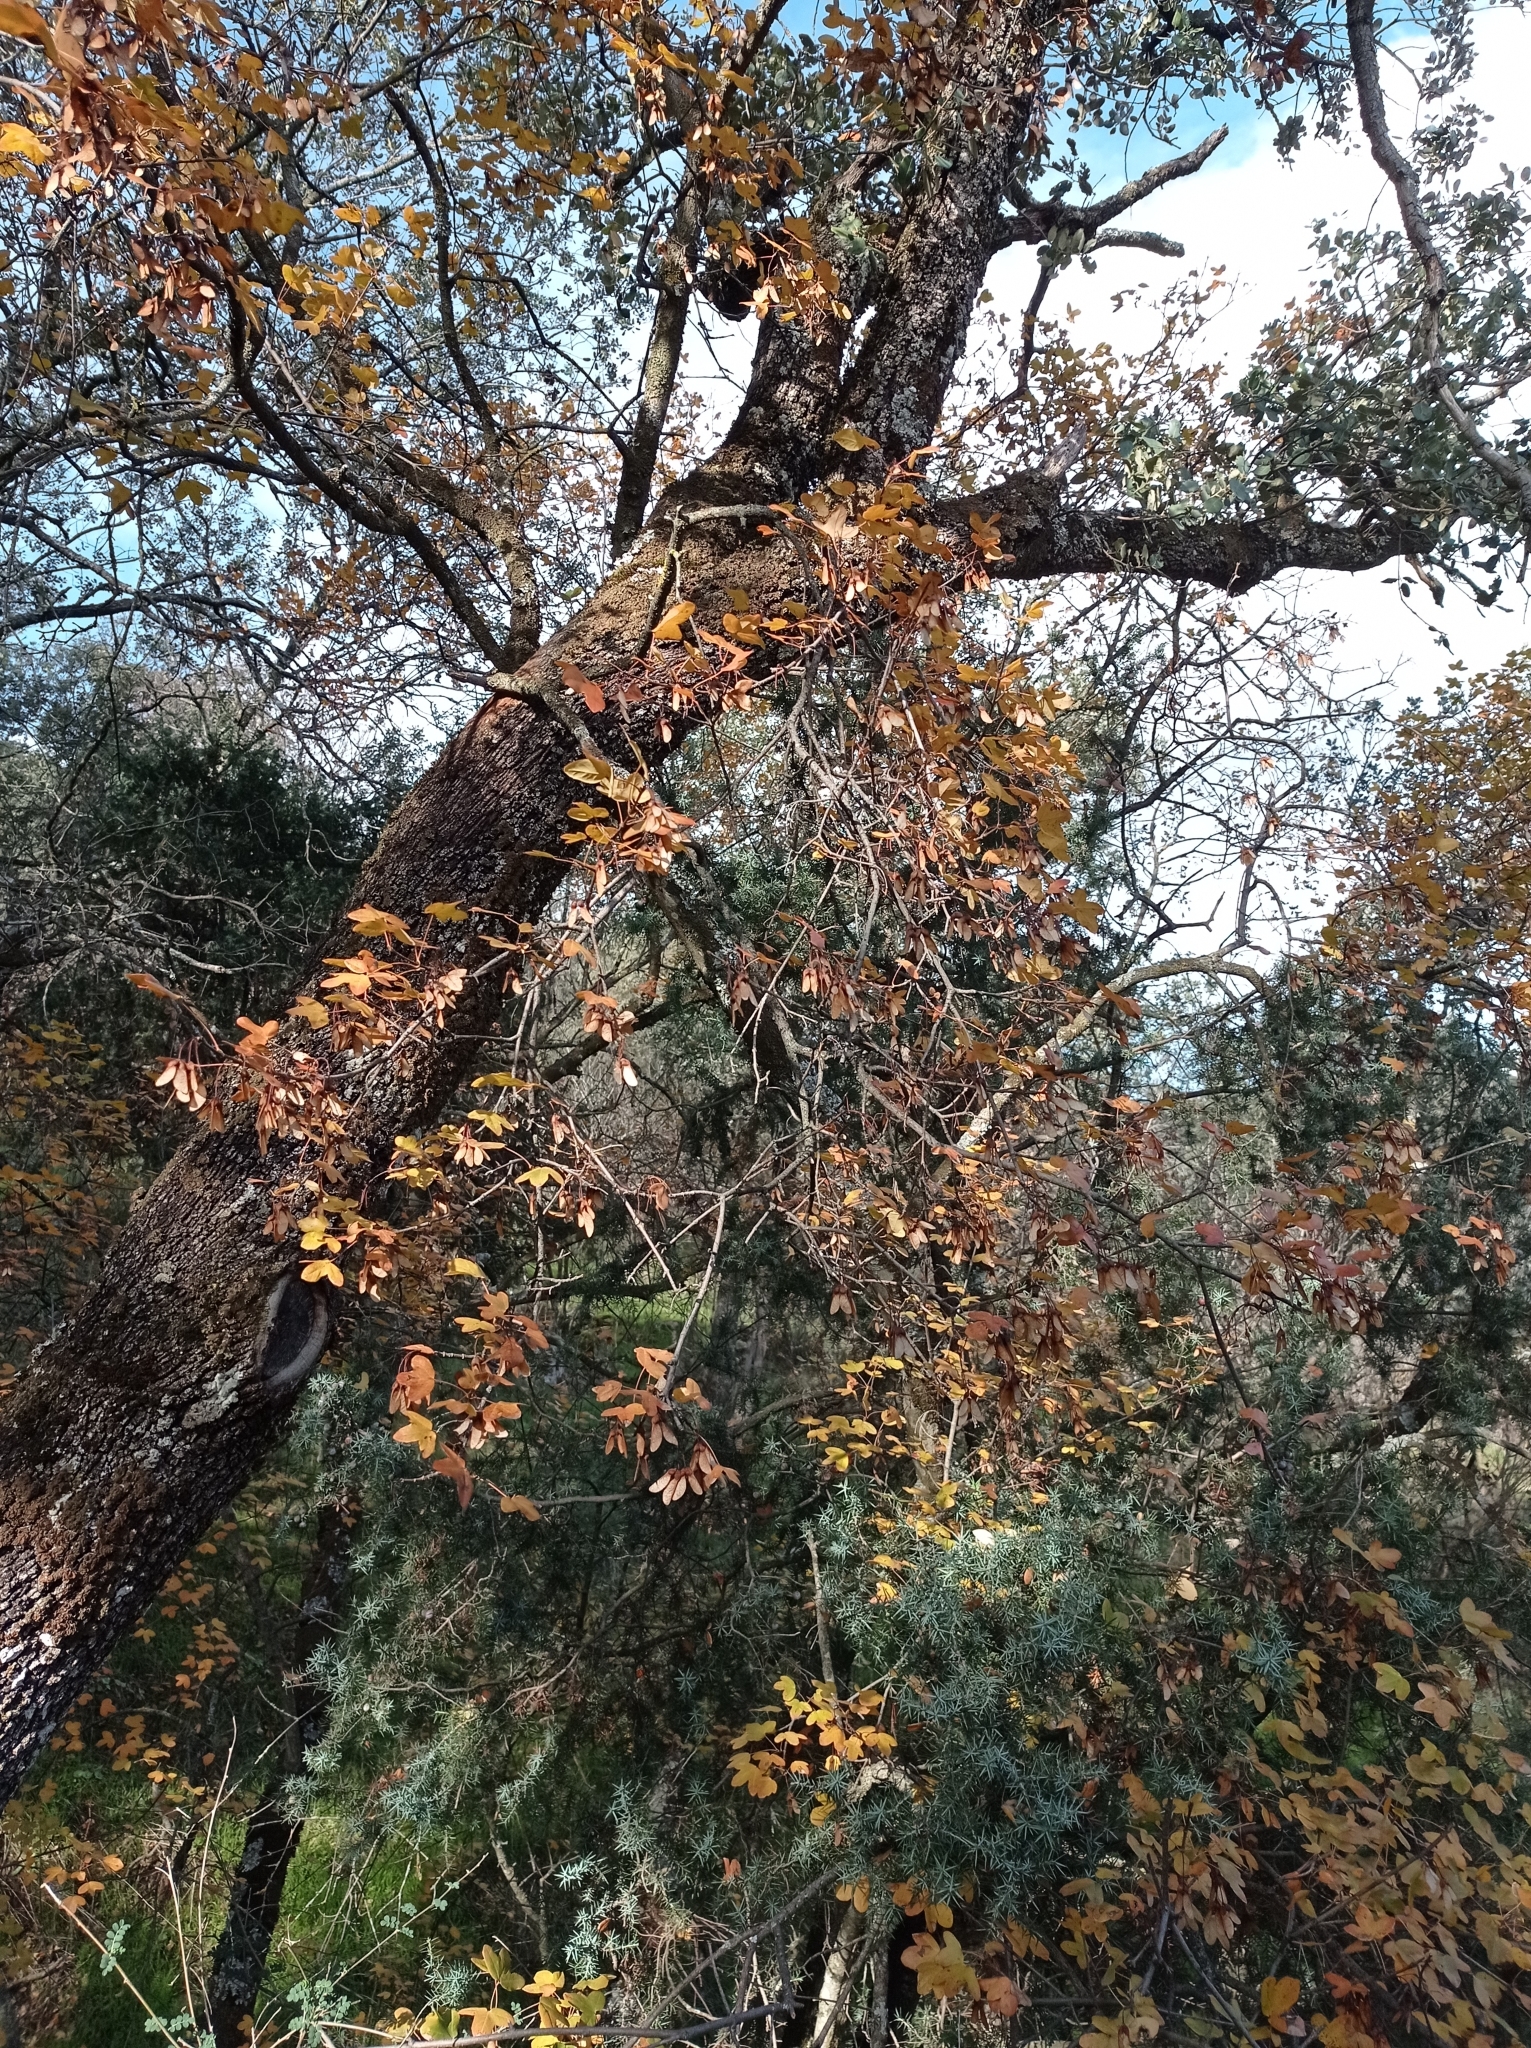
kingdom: Plantae
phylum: Tracheophyta
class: Magnoliopsida
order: Sapindales
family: Sapindaceae
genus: Acer
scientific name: Acer monspessulanum
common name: Montpellier maple
